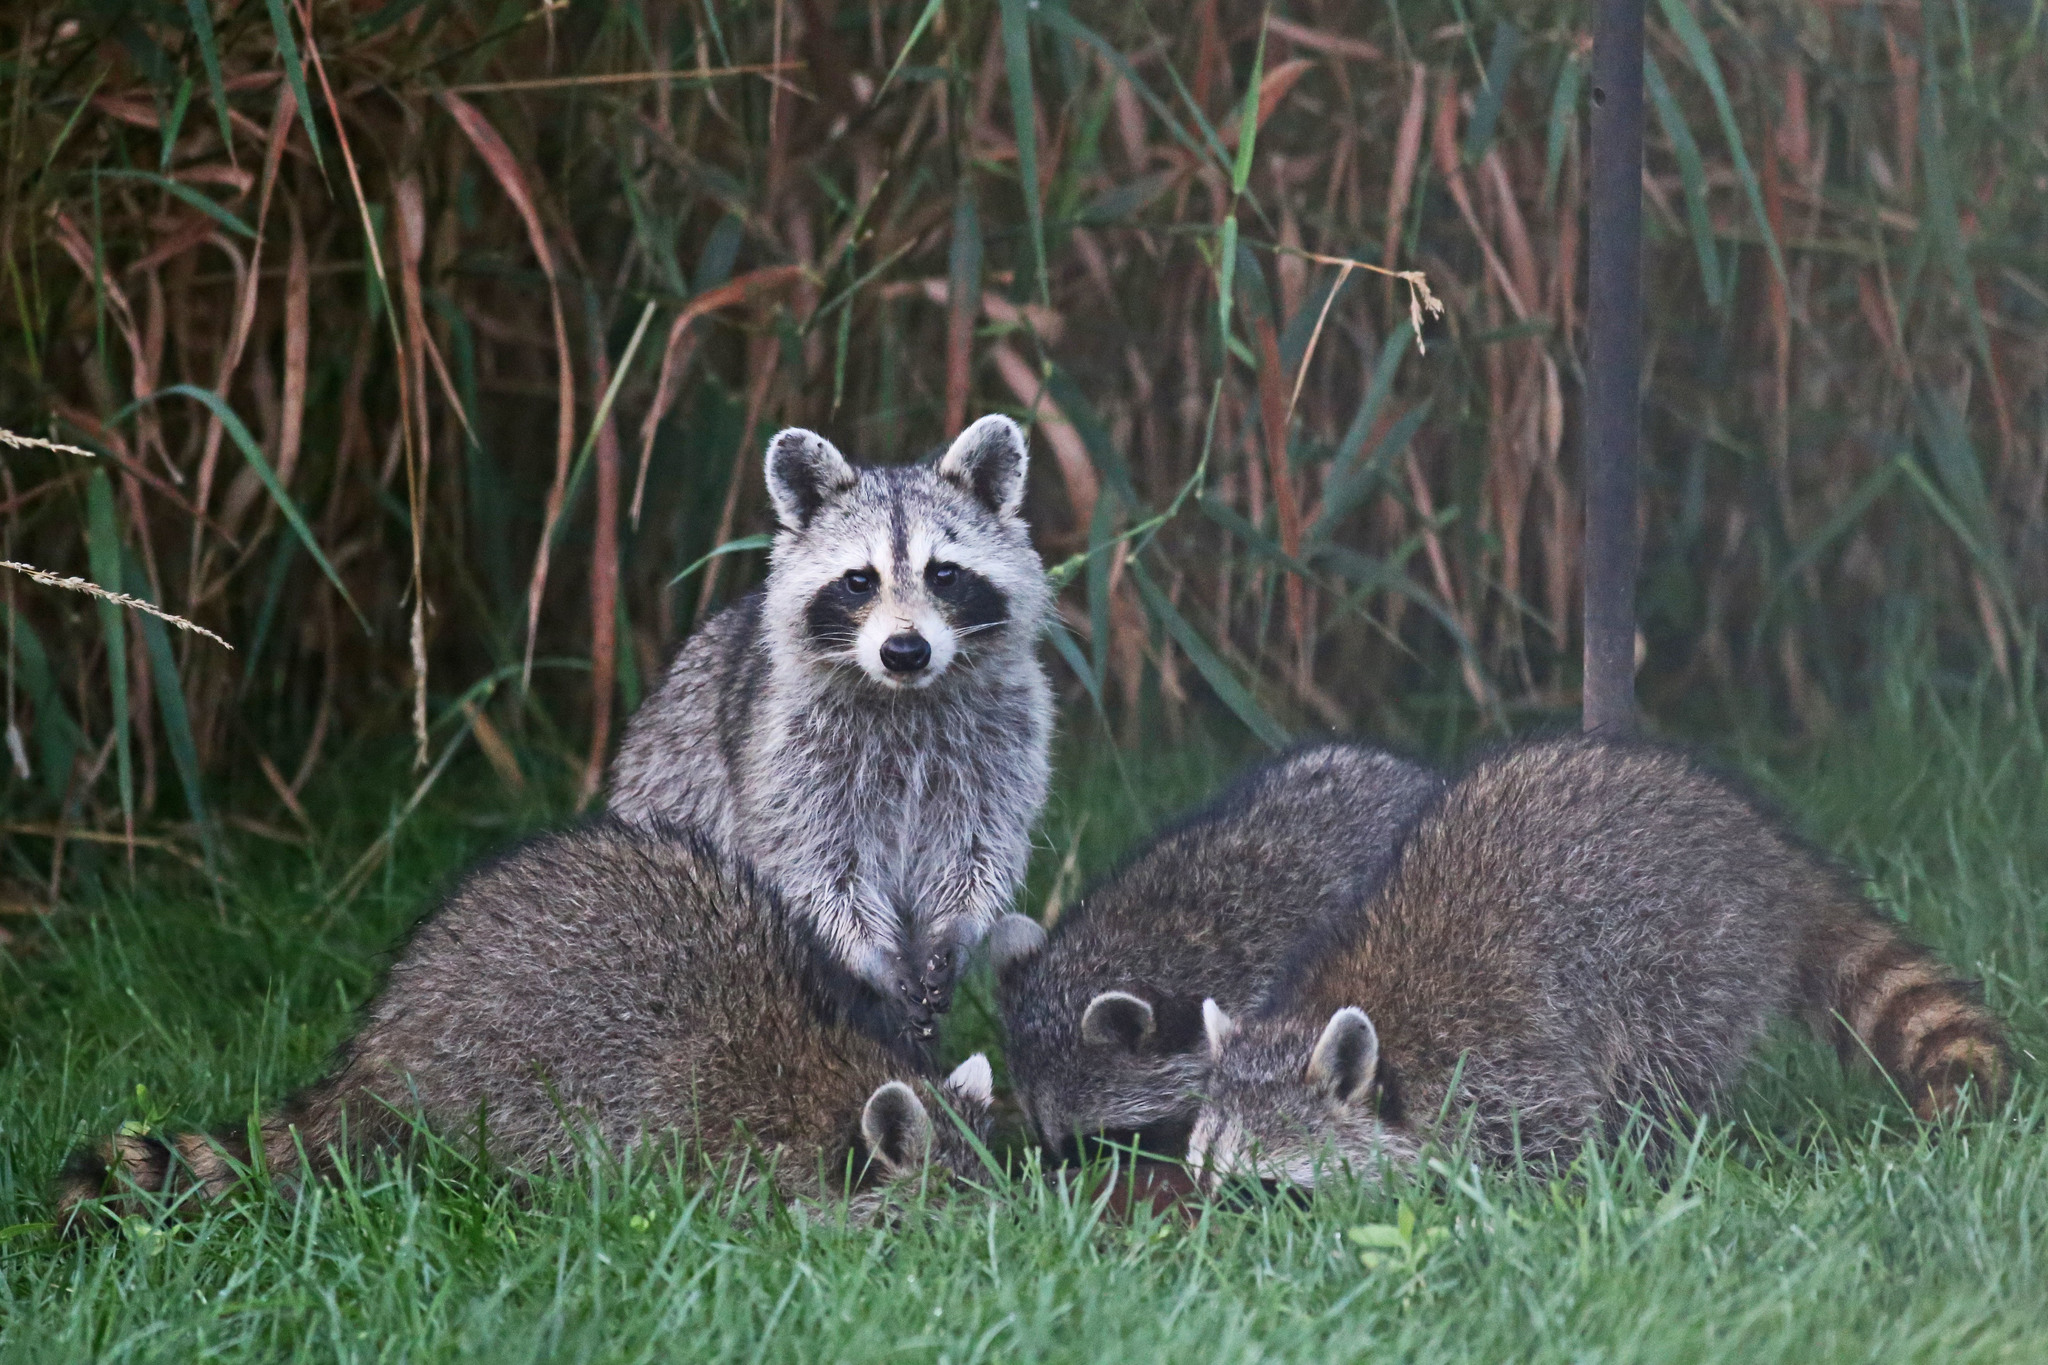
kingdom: Animalia
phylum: Chordata
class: Mammalia
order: Carnivora
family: Procyonidae
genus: Procyon
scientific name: Procyon lotor
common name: Raccoon
